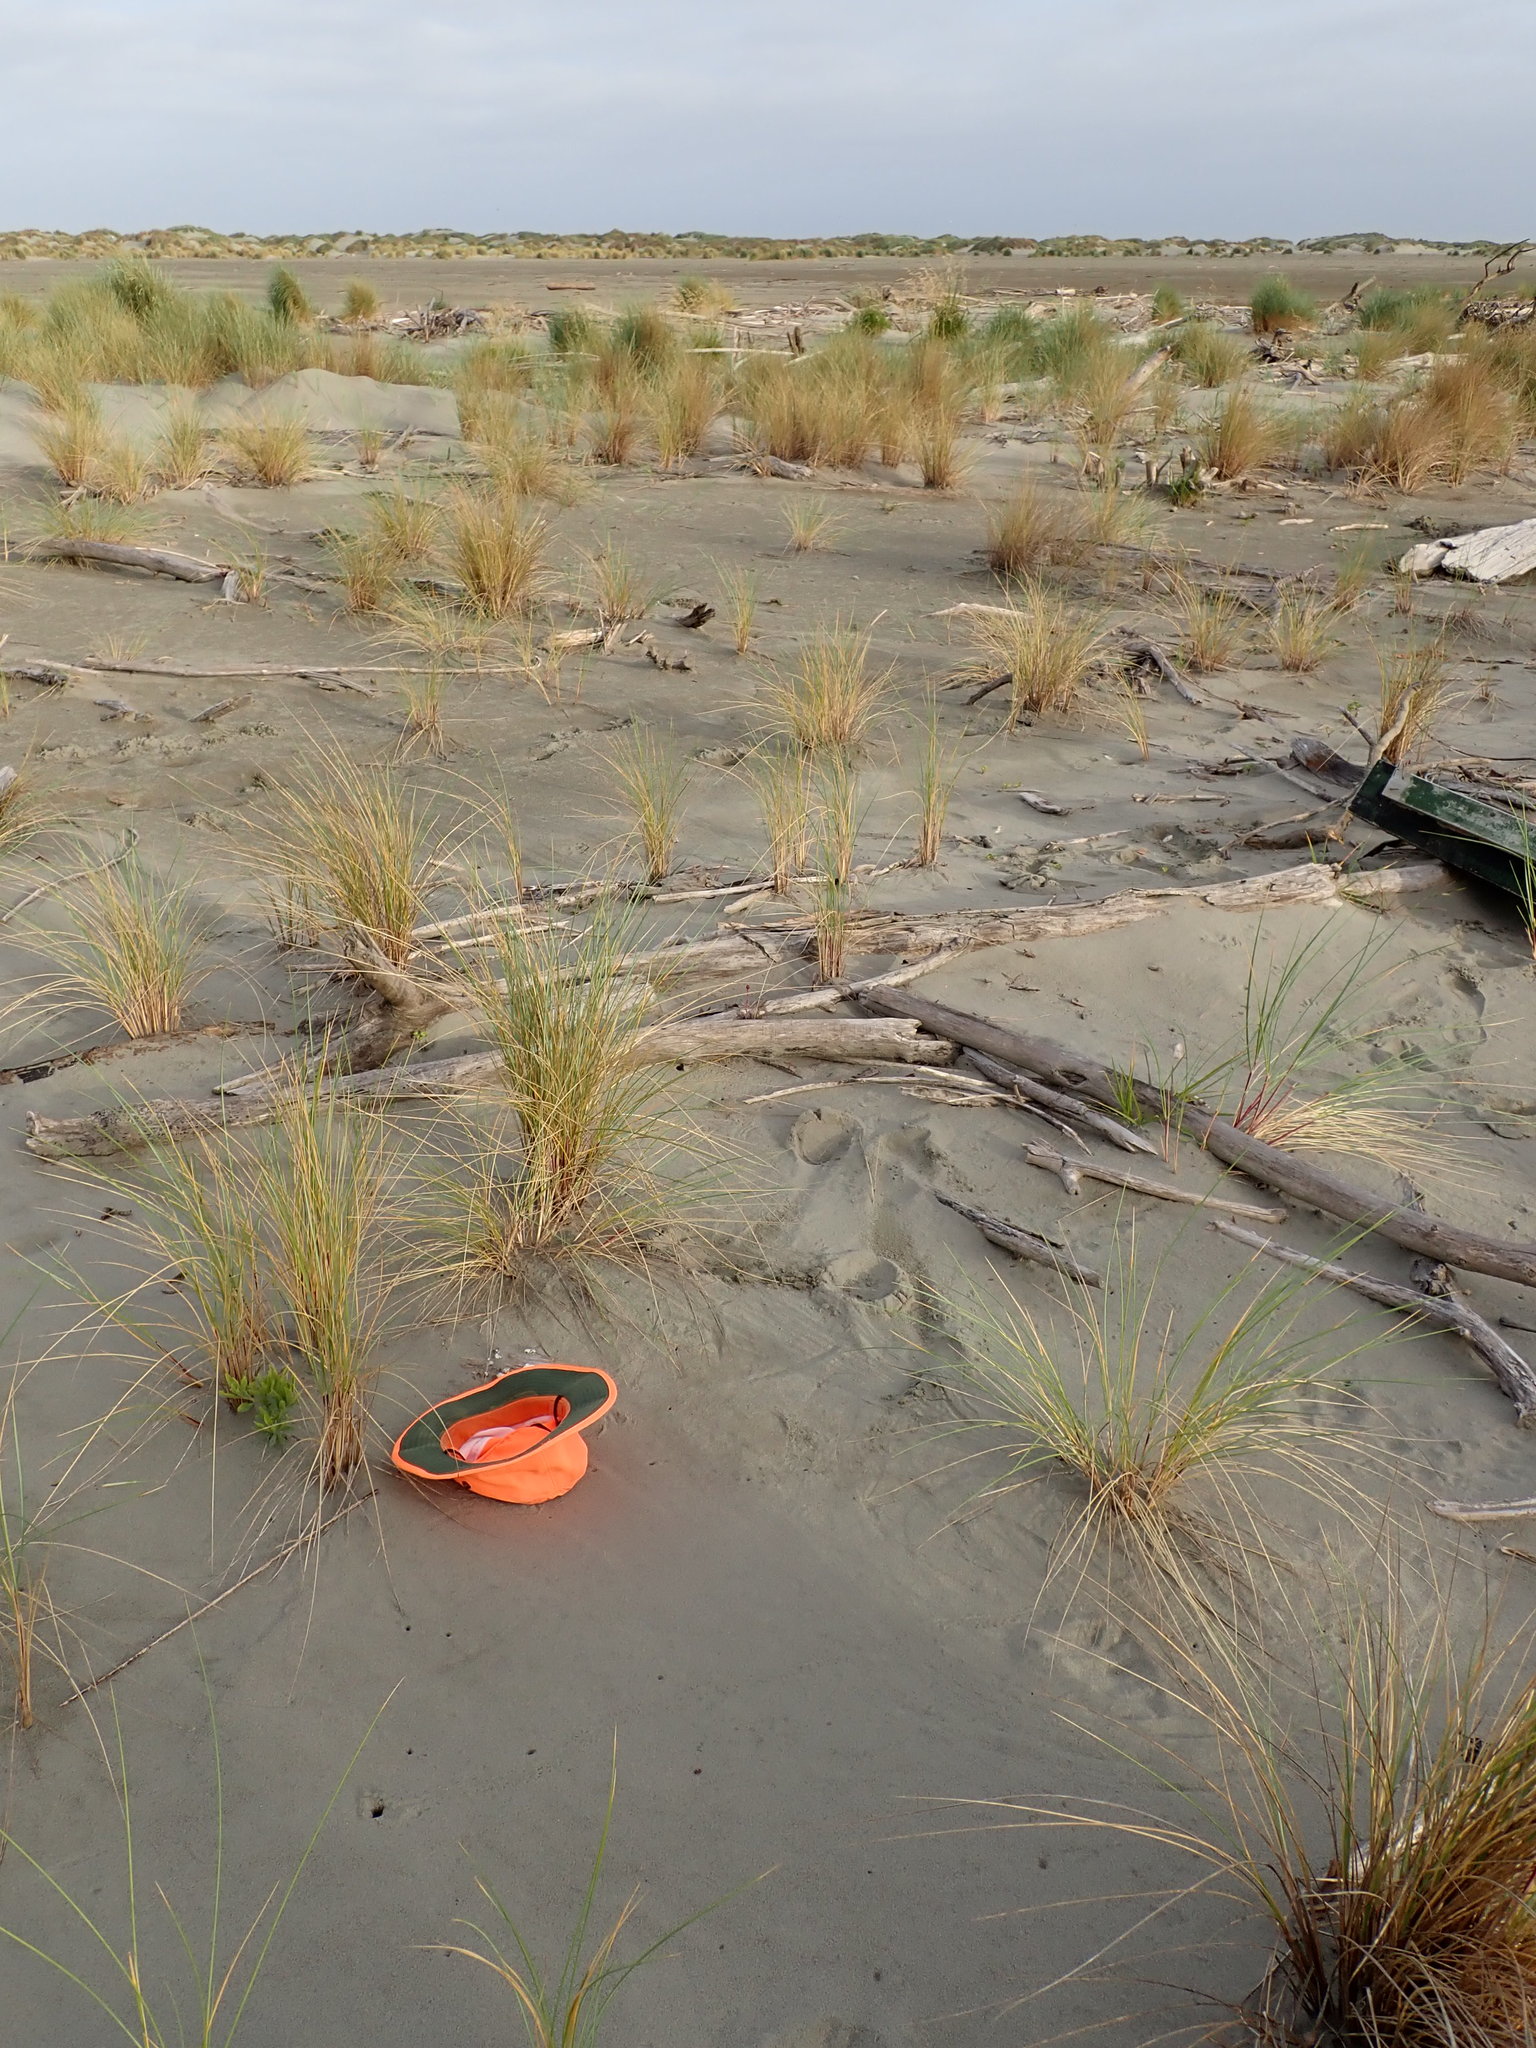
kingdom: Fungi
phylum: Basidiomycota
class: Agaricomycetes
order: Agaricales
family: Schizophyllaceae
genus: Schizophyllum
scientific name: Schizophyllum commune
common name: Common porecrust
